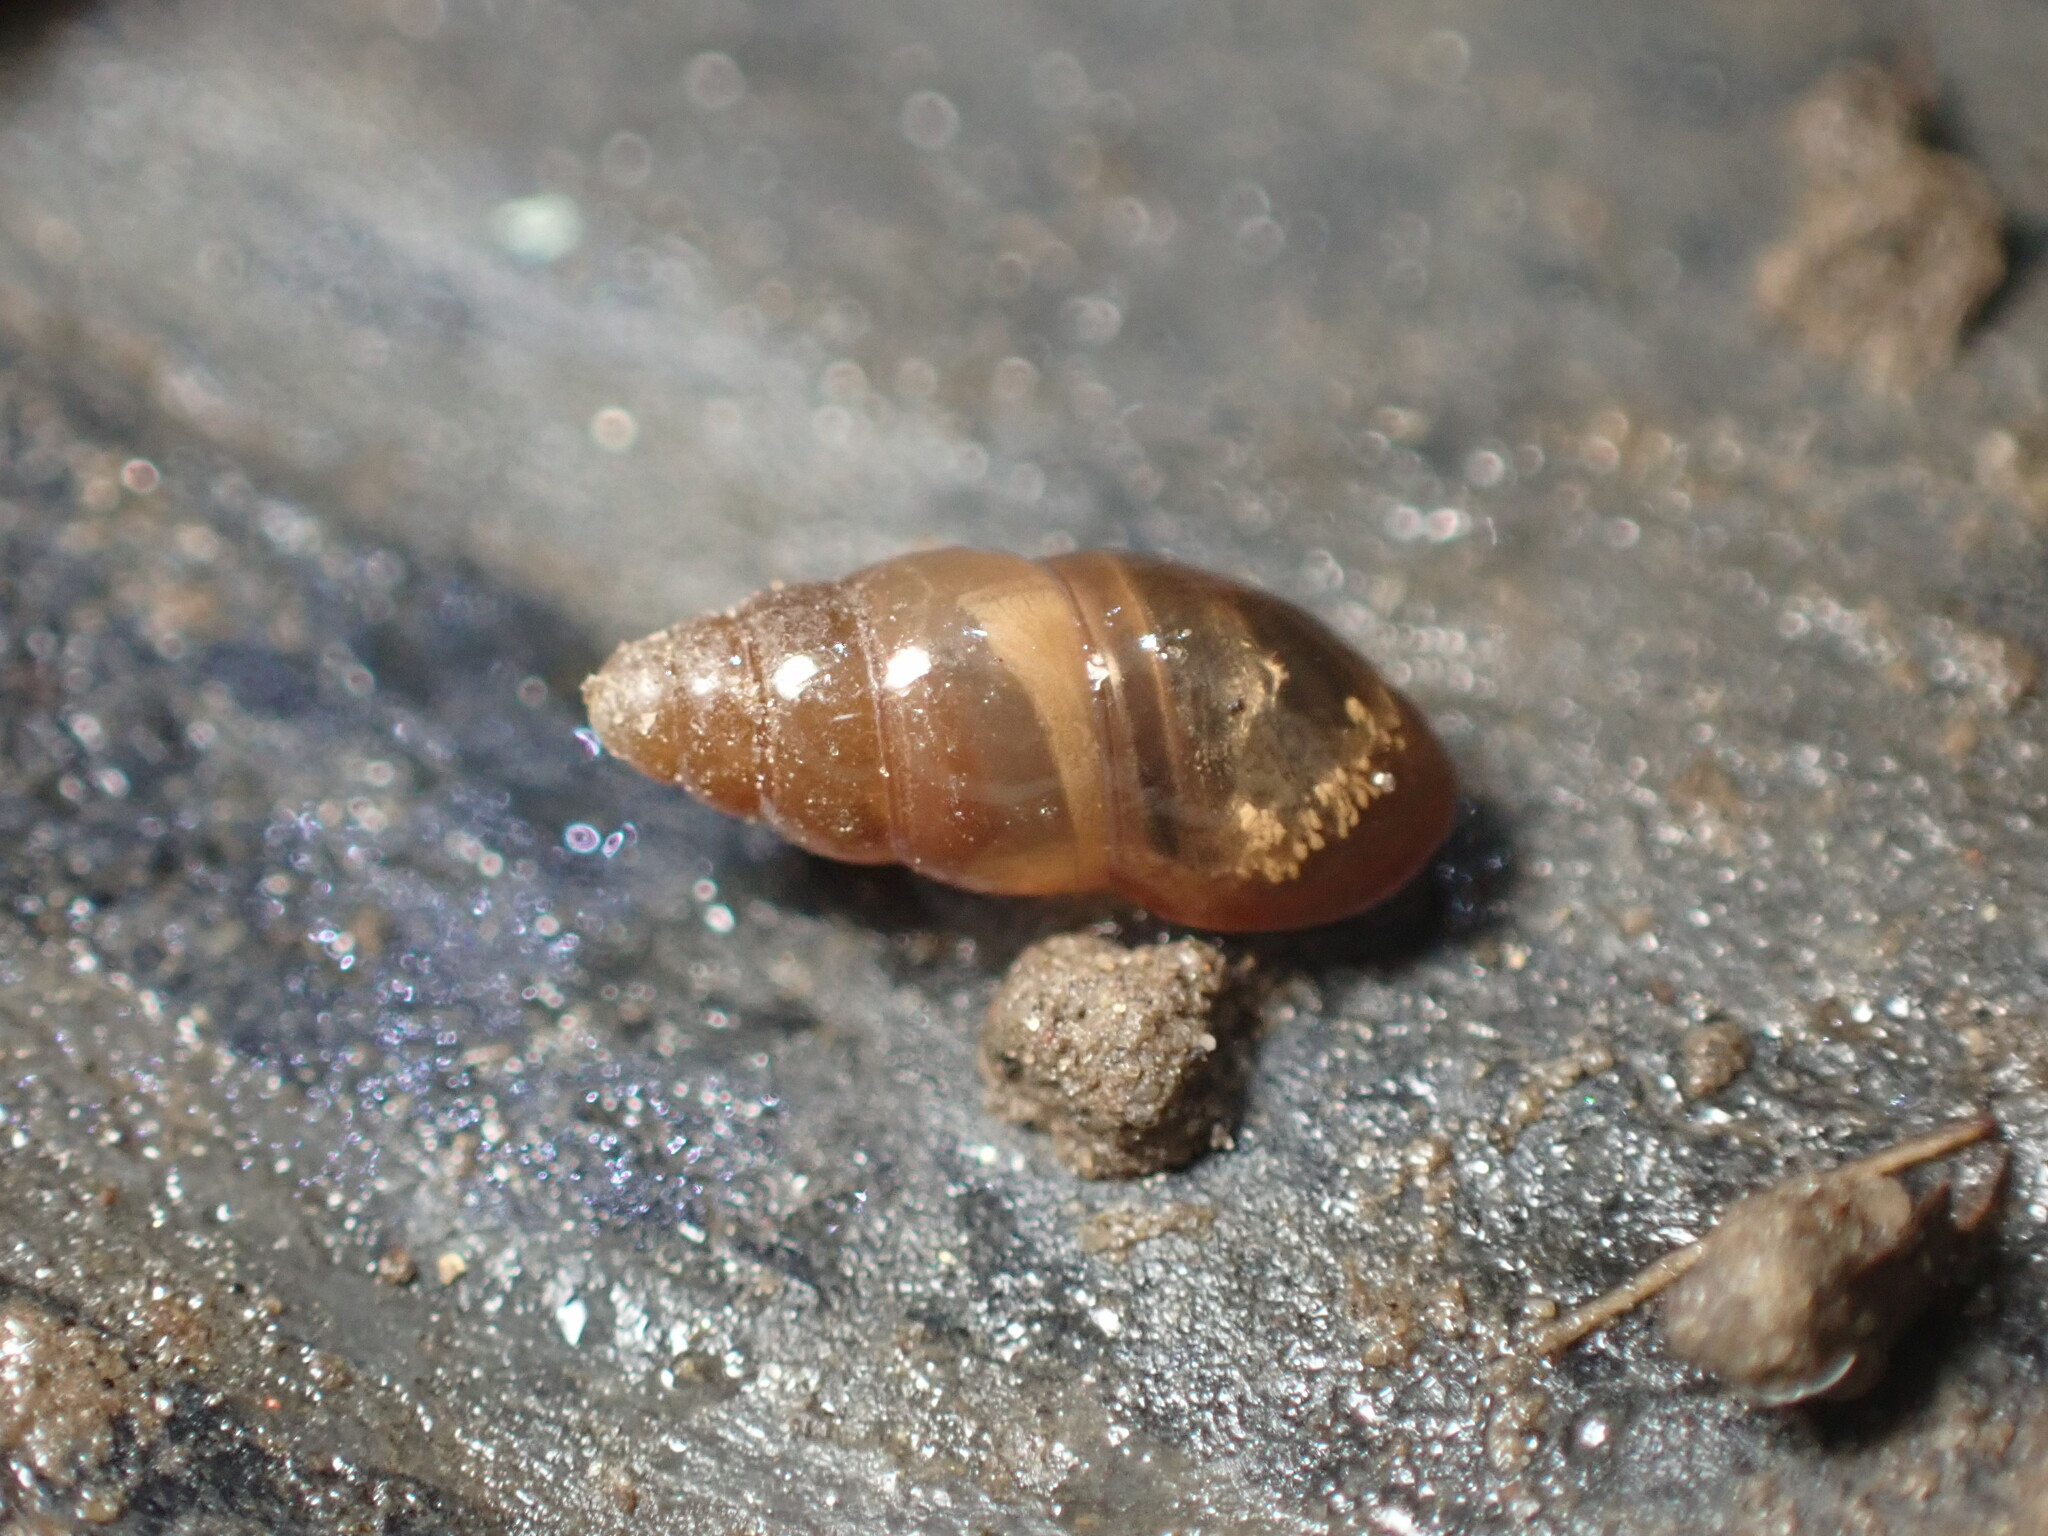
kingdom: Animalia
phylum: Mollusca
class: Gastropoda
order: Stylommatophora
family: Cochlicopidae
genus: Cochlicopa
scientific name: Cochlicopa lubrica
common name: Glossy pillar snail
